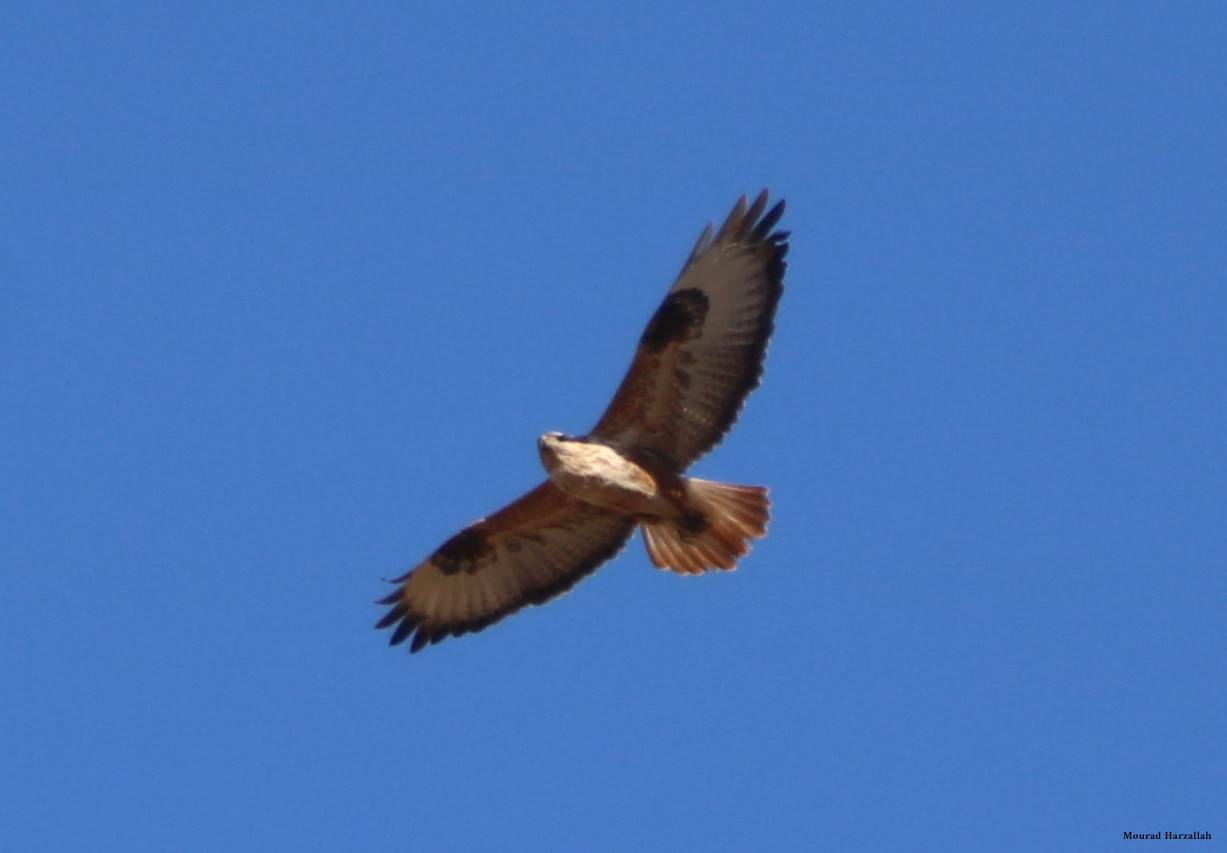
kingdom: Animalia
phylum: Chordata
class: Aves
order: Accipitriformes
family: Accipitridae
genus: Buteo
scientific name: Buteo rufinus
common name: Long-legged buzzard
